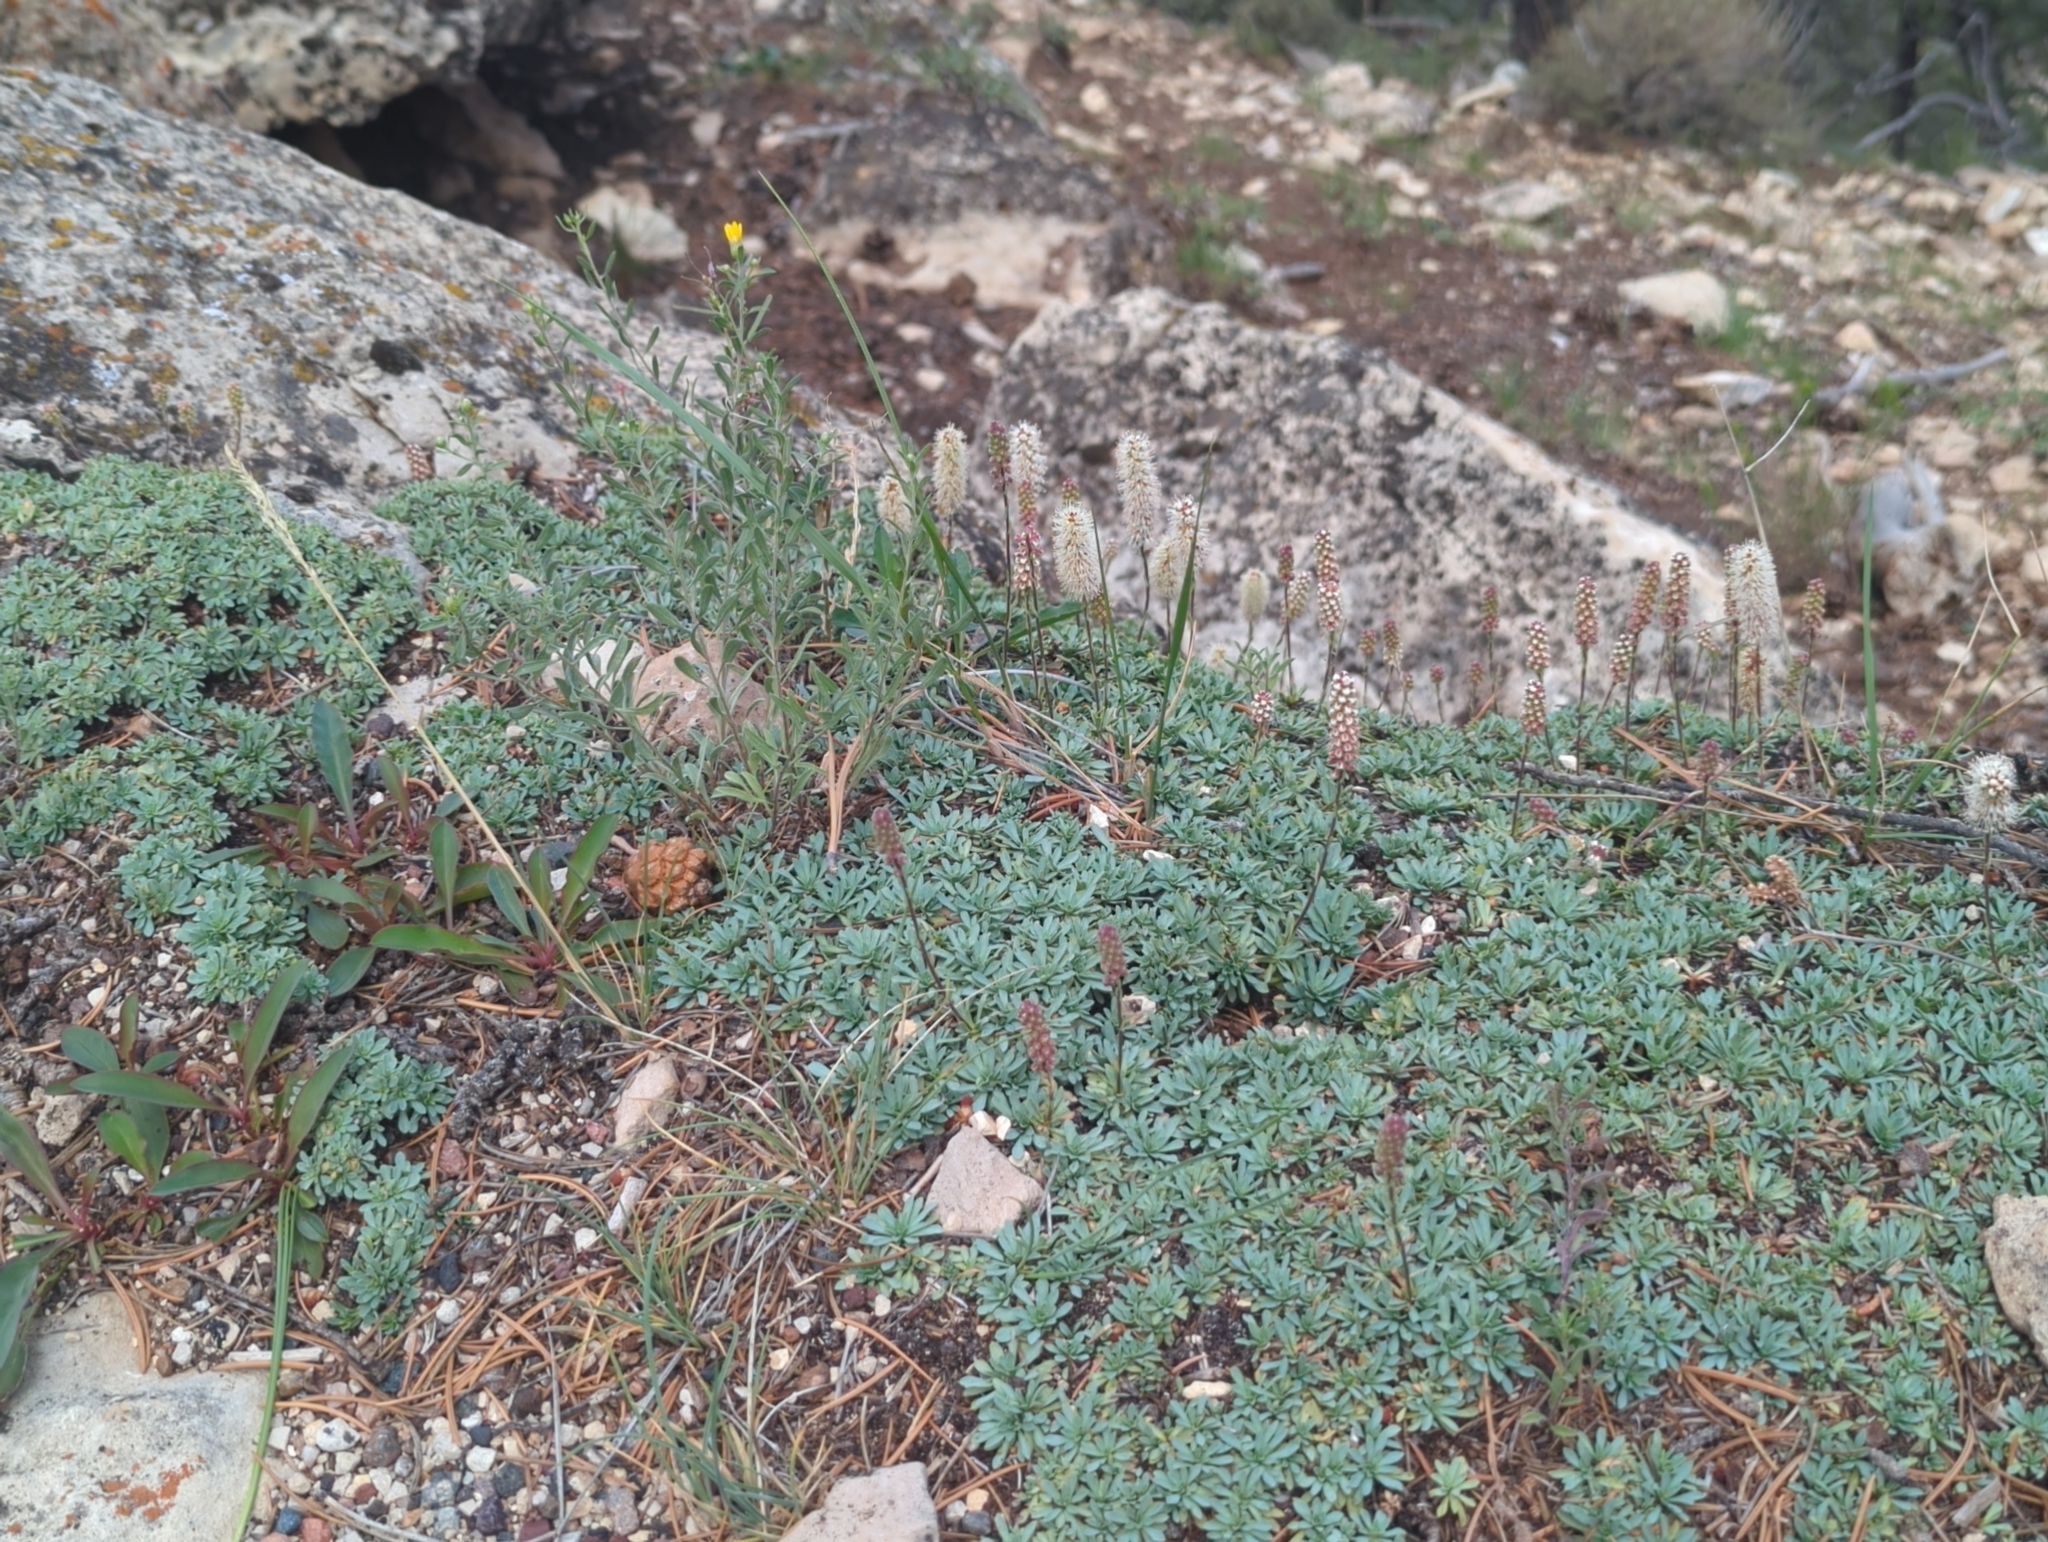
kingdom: Plantae
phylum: Tracheophyta
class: Magnoliopsida
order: Rosales
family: Rosaceae
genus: Petrophytum
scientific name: Petrophytum caespitosum
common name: Mat rockspirea
